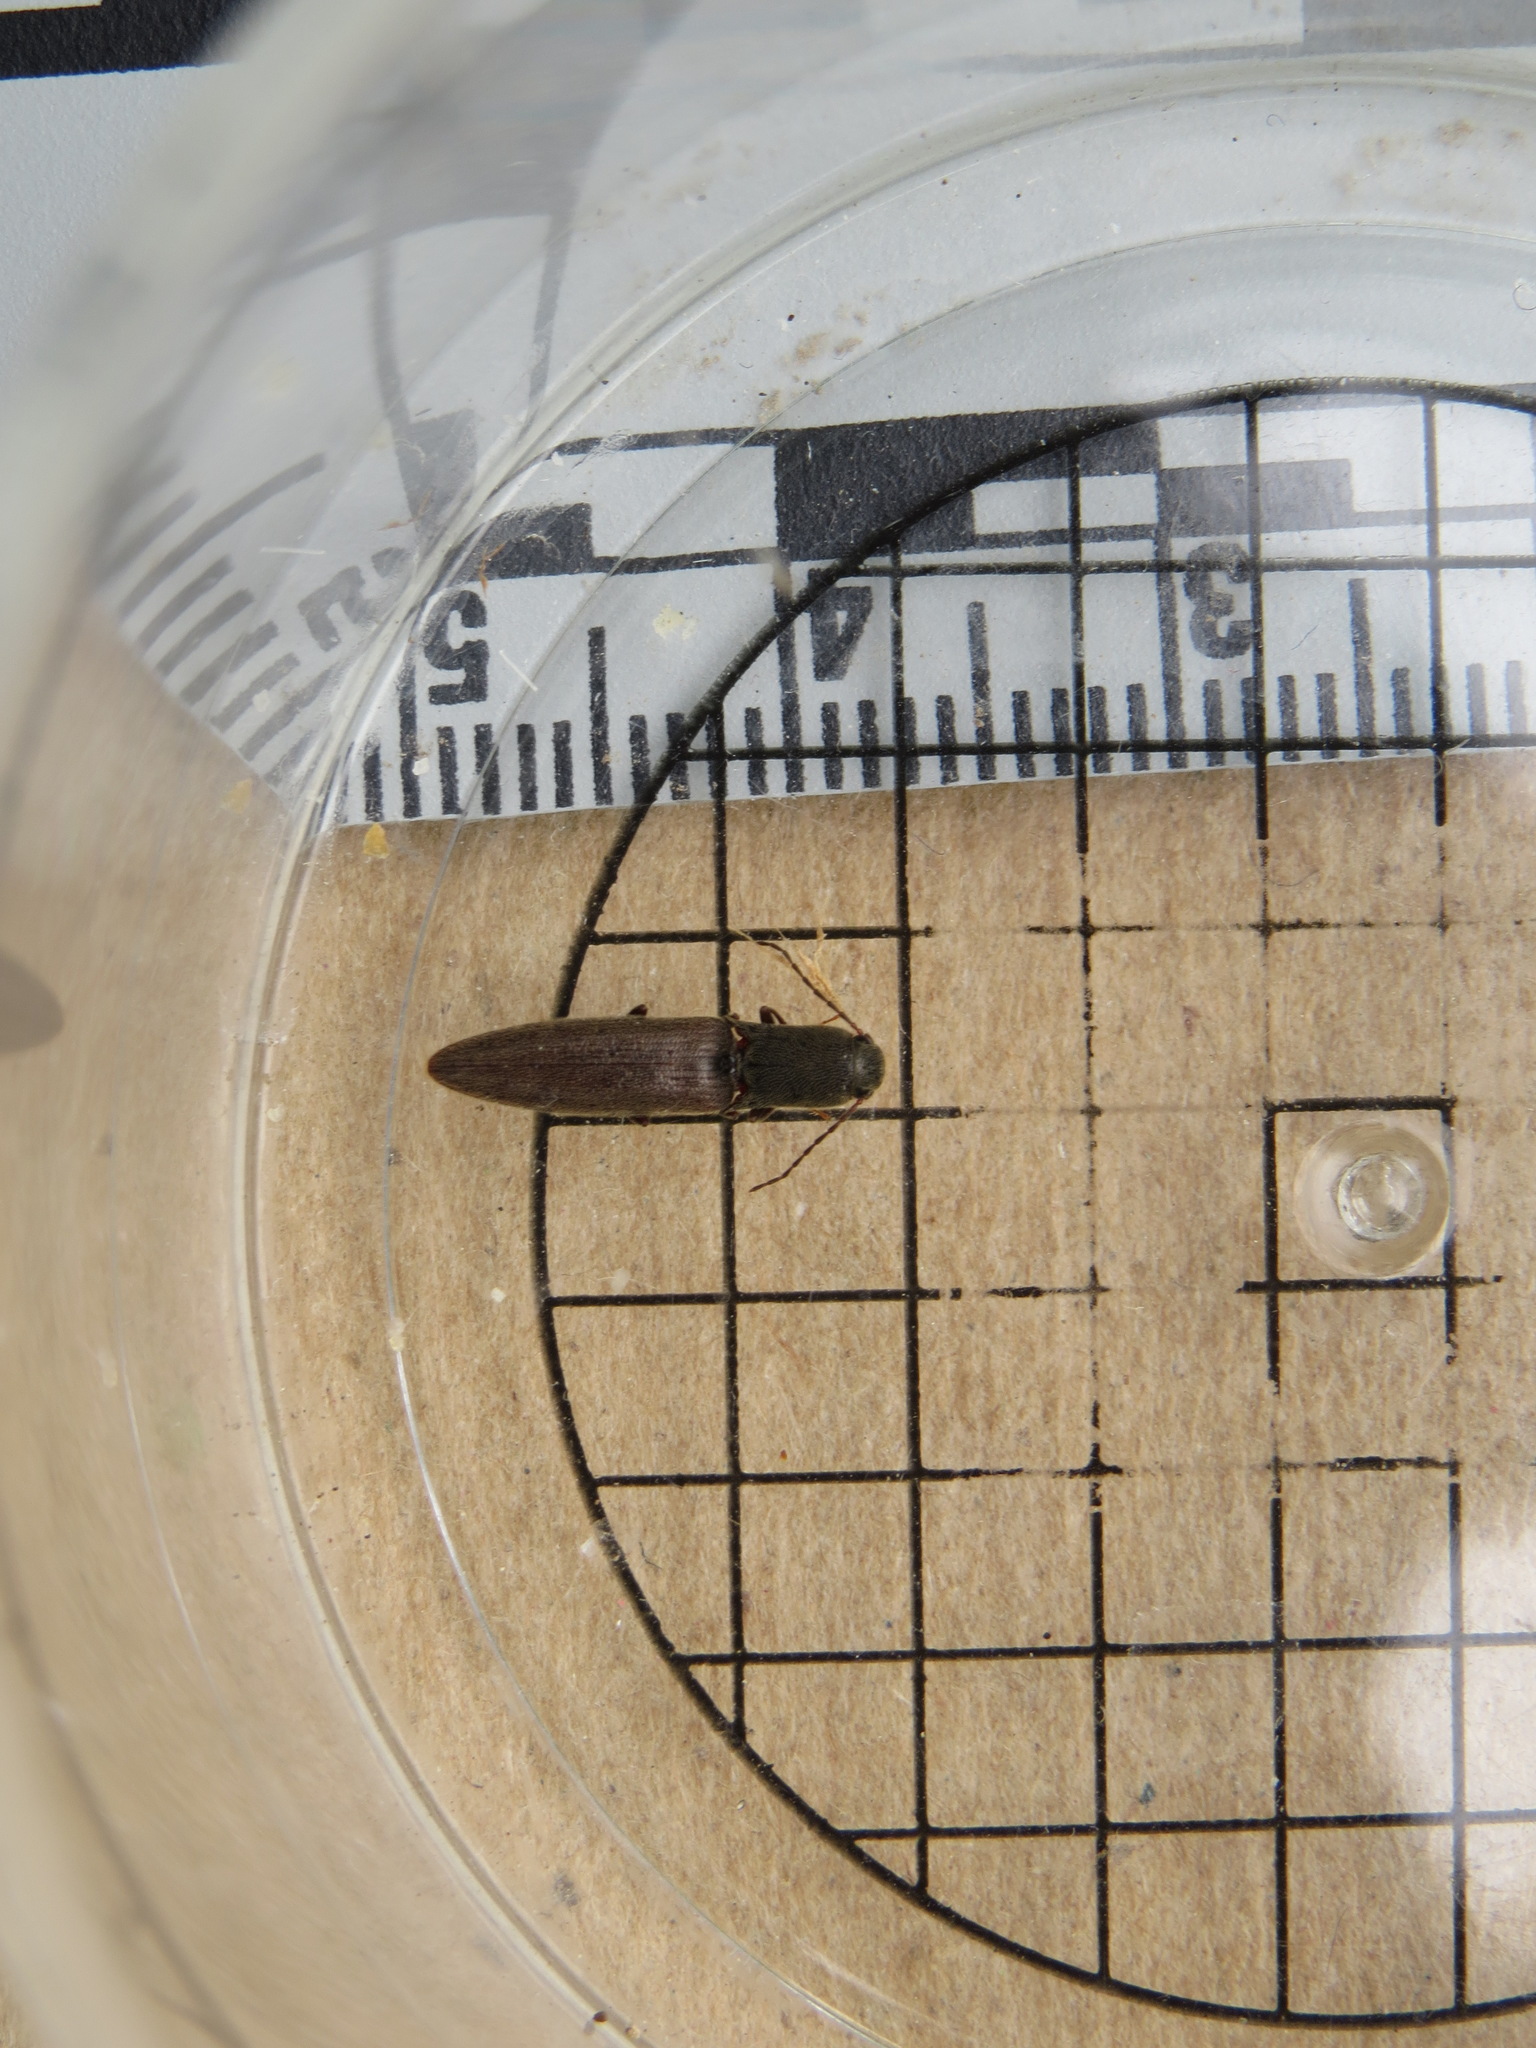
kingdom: Animalia
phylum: Arthropoda
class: Insecta
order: Coleoptera
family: Elateridae
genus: Leptoschema
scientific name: Leptoschema
